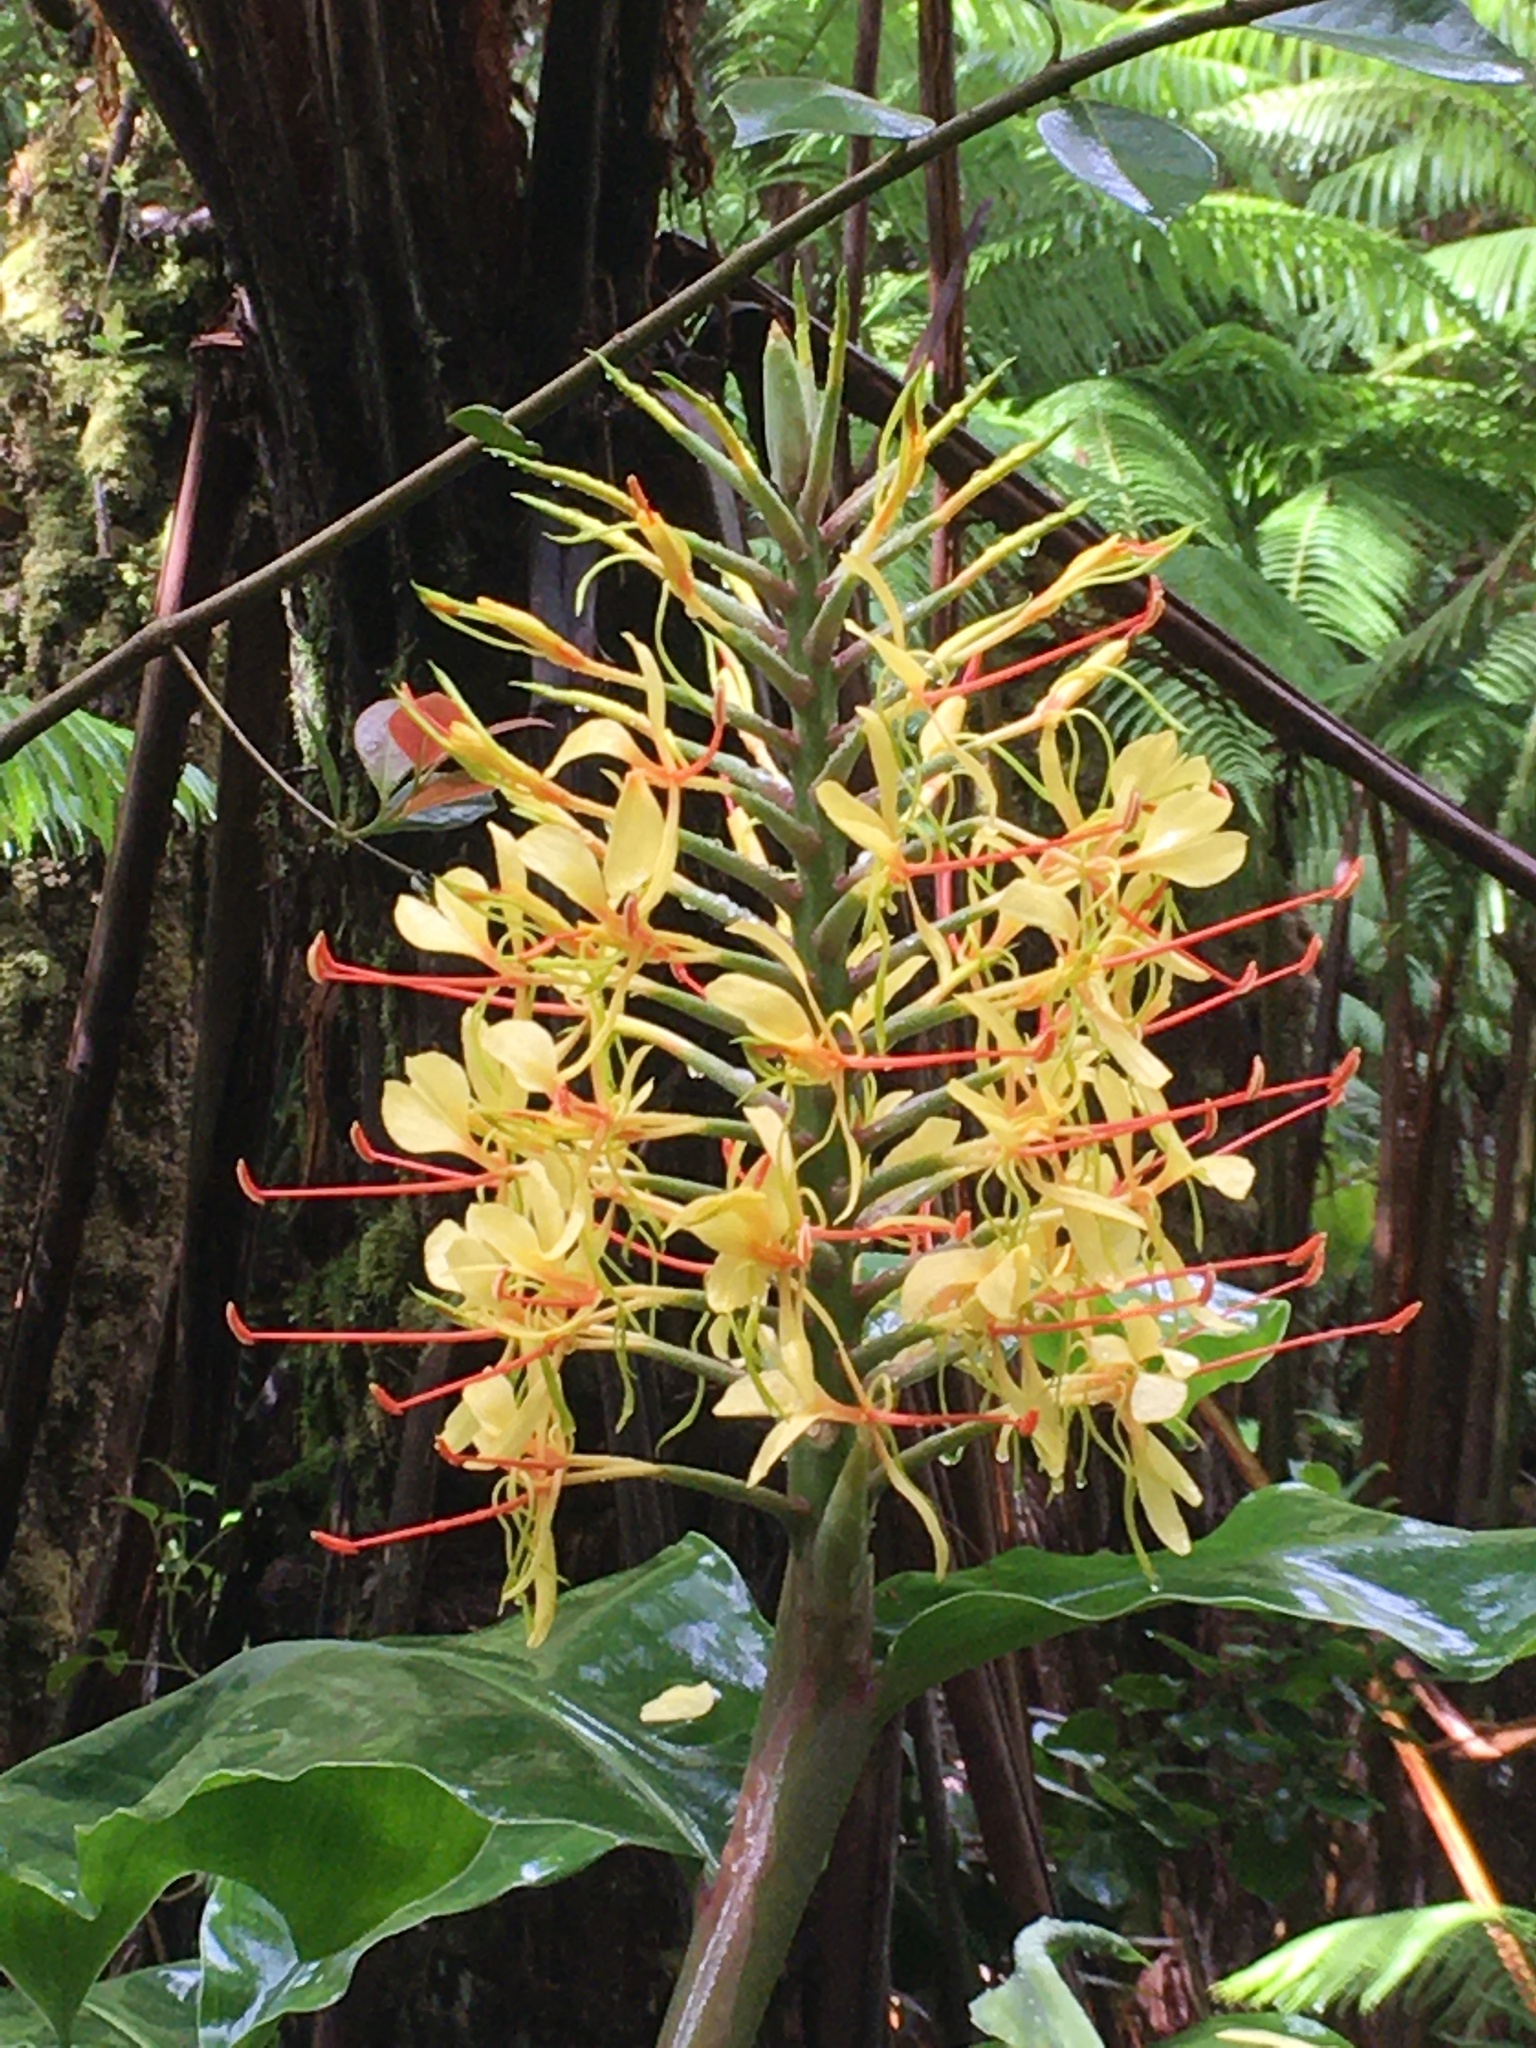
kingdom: Plantae
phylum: Tracheophyta
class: Liliopsida
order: Zingiberales
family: Zingiberaceae
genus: Hedychium
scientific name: Hedychium gardnerianum
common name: Himalayan ginger
